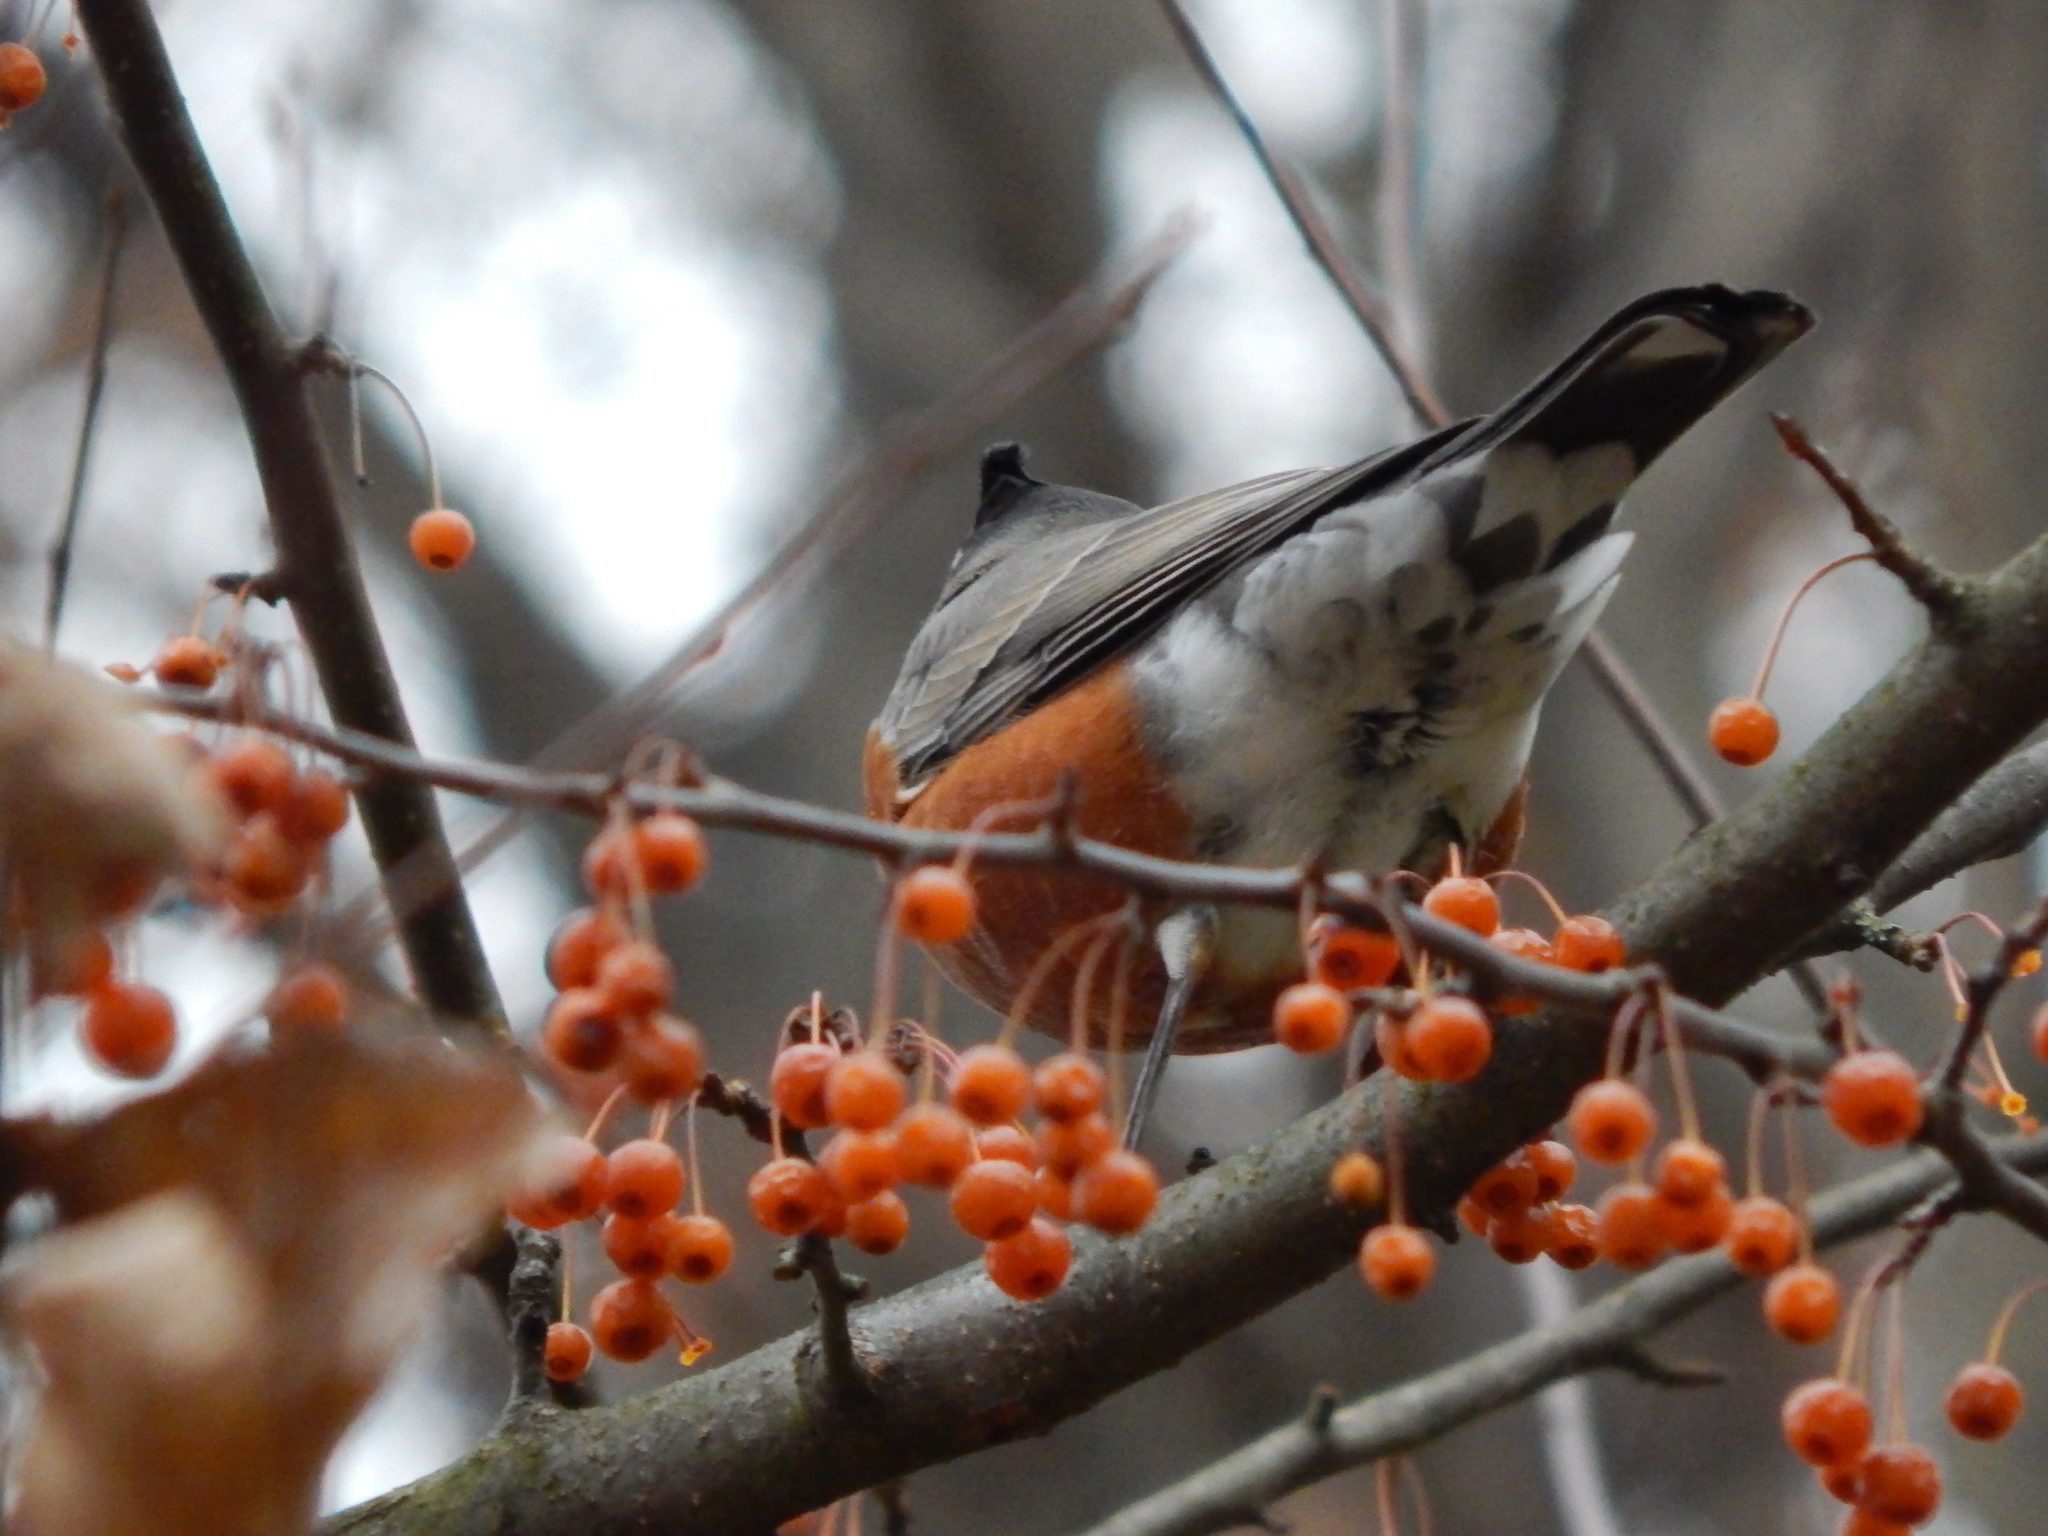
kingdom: Animalia
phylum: Chordata
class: Aves
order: Passeriformes
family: Turdidae
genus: Turdus
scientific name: Turdus migratorius
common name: American robin
